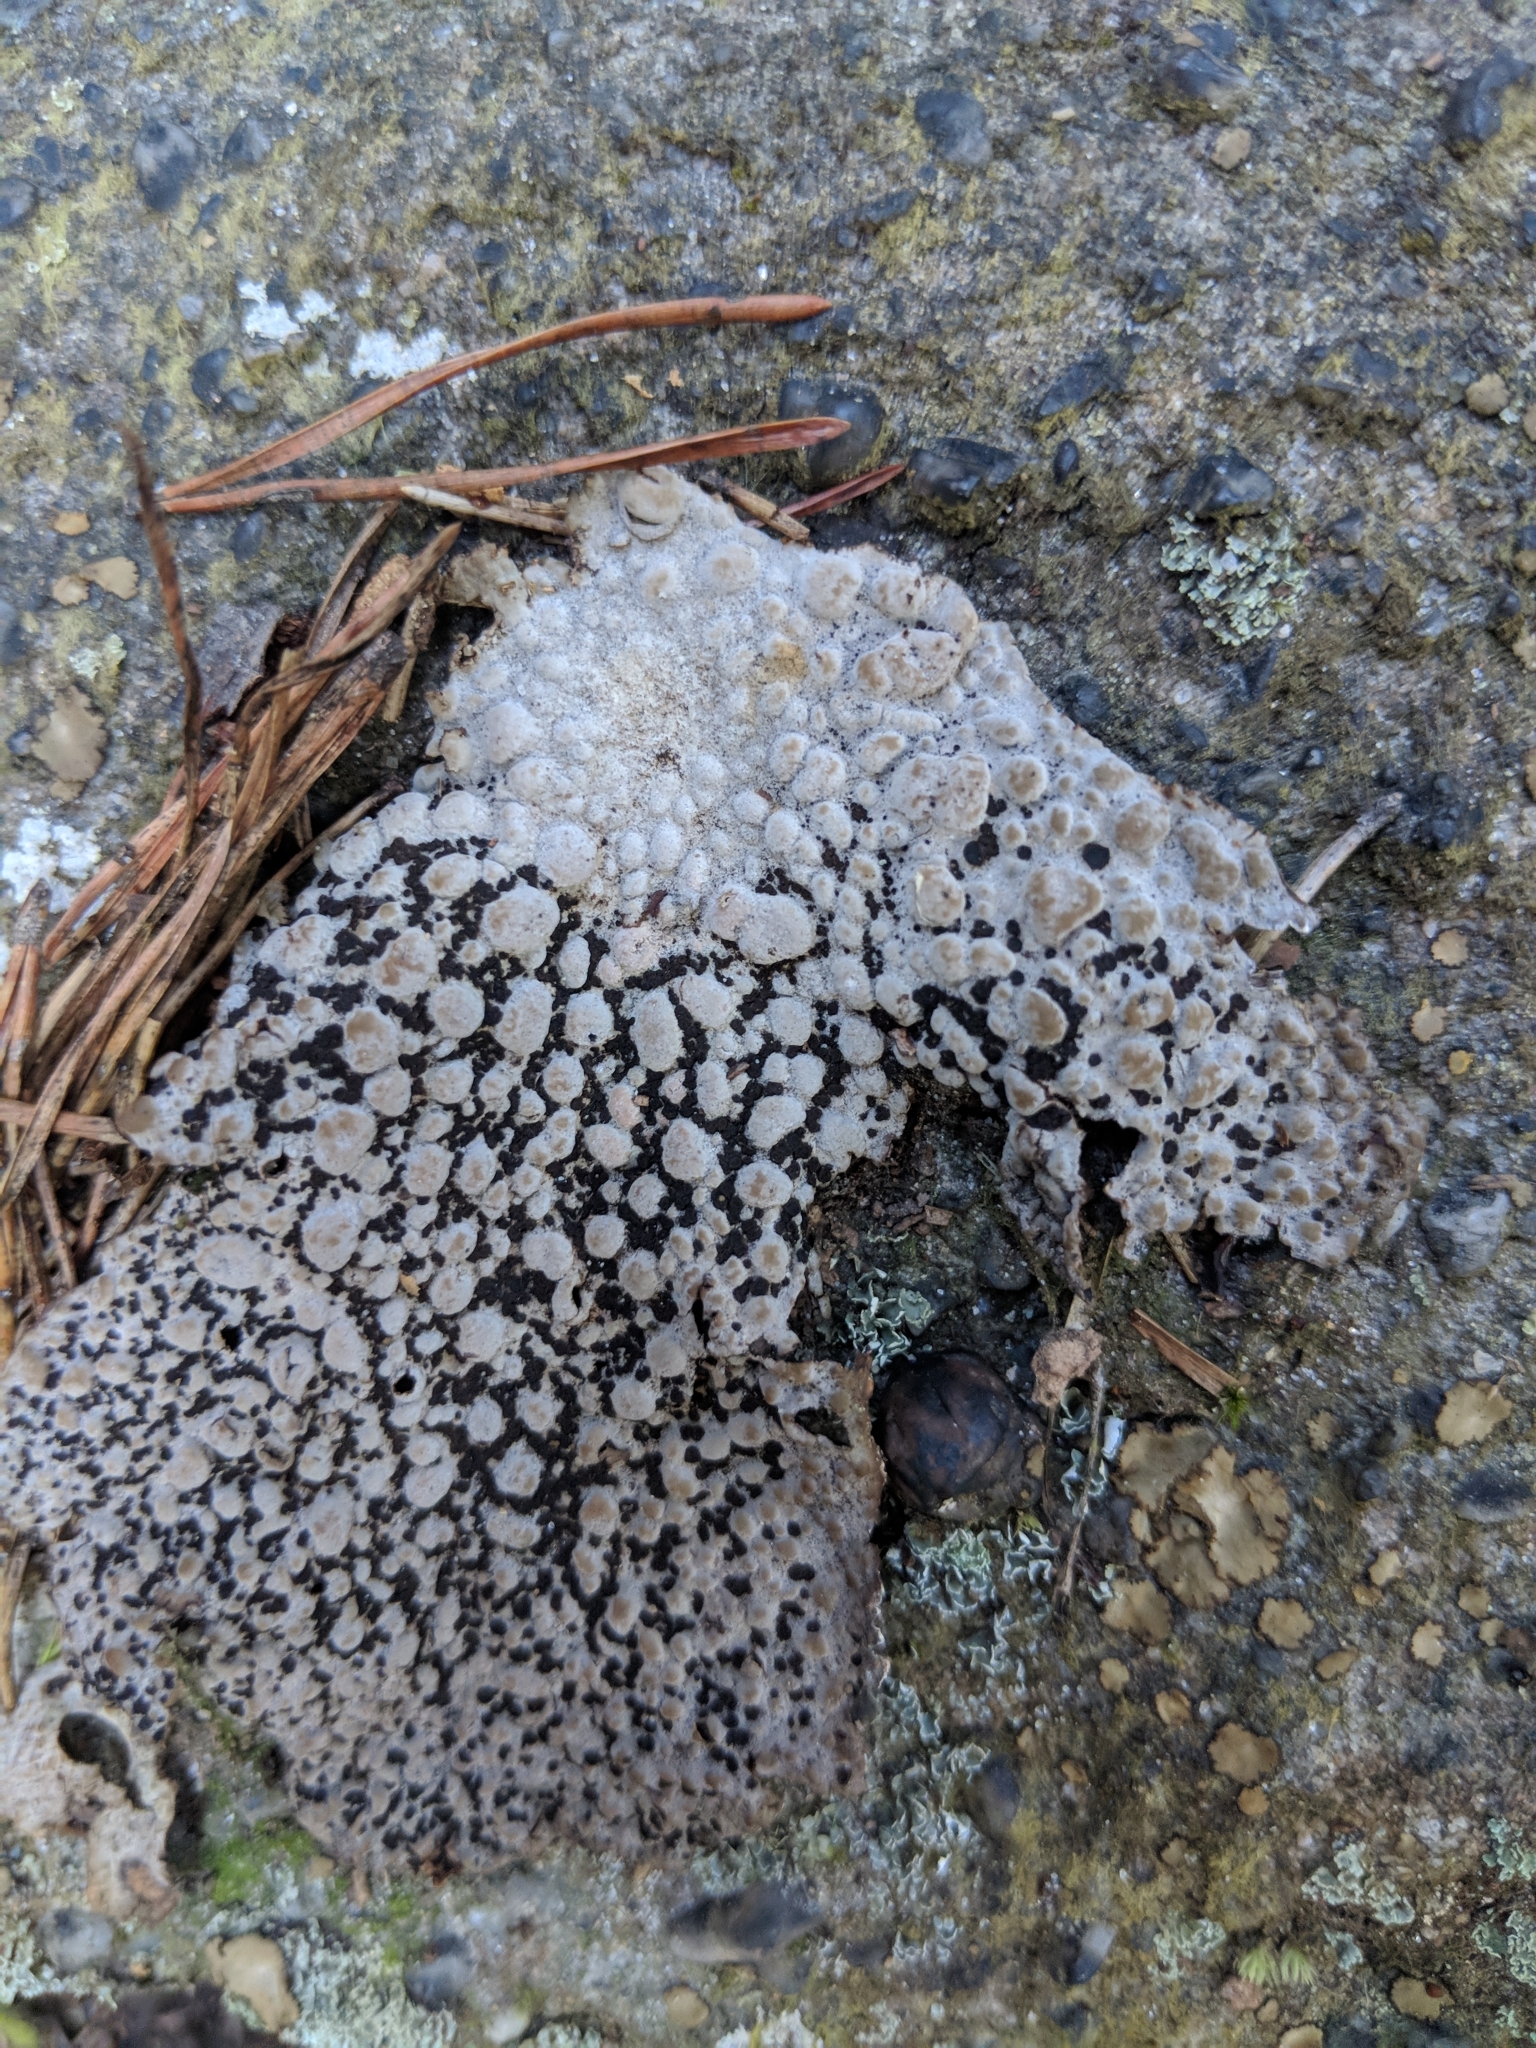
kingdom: Fungi
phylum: Ascomycota
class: Lecanoromycetes
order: Umbilicariales
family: Umbilicariaceae
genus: Lasallia
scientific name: Lasallia papulosa
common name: Common toadskin lichen
